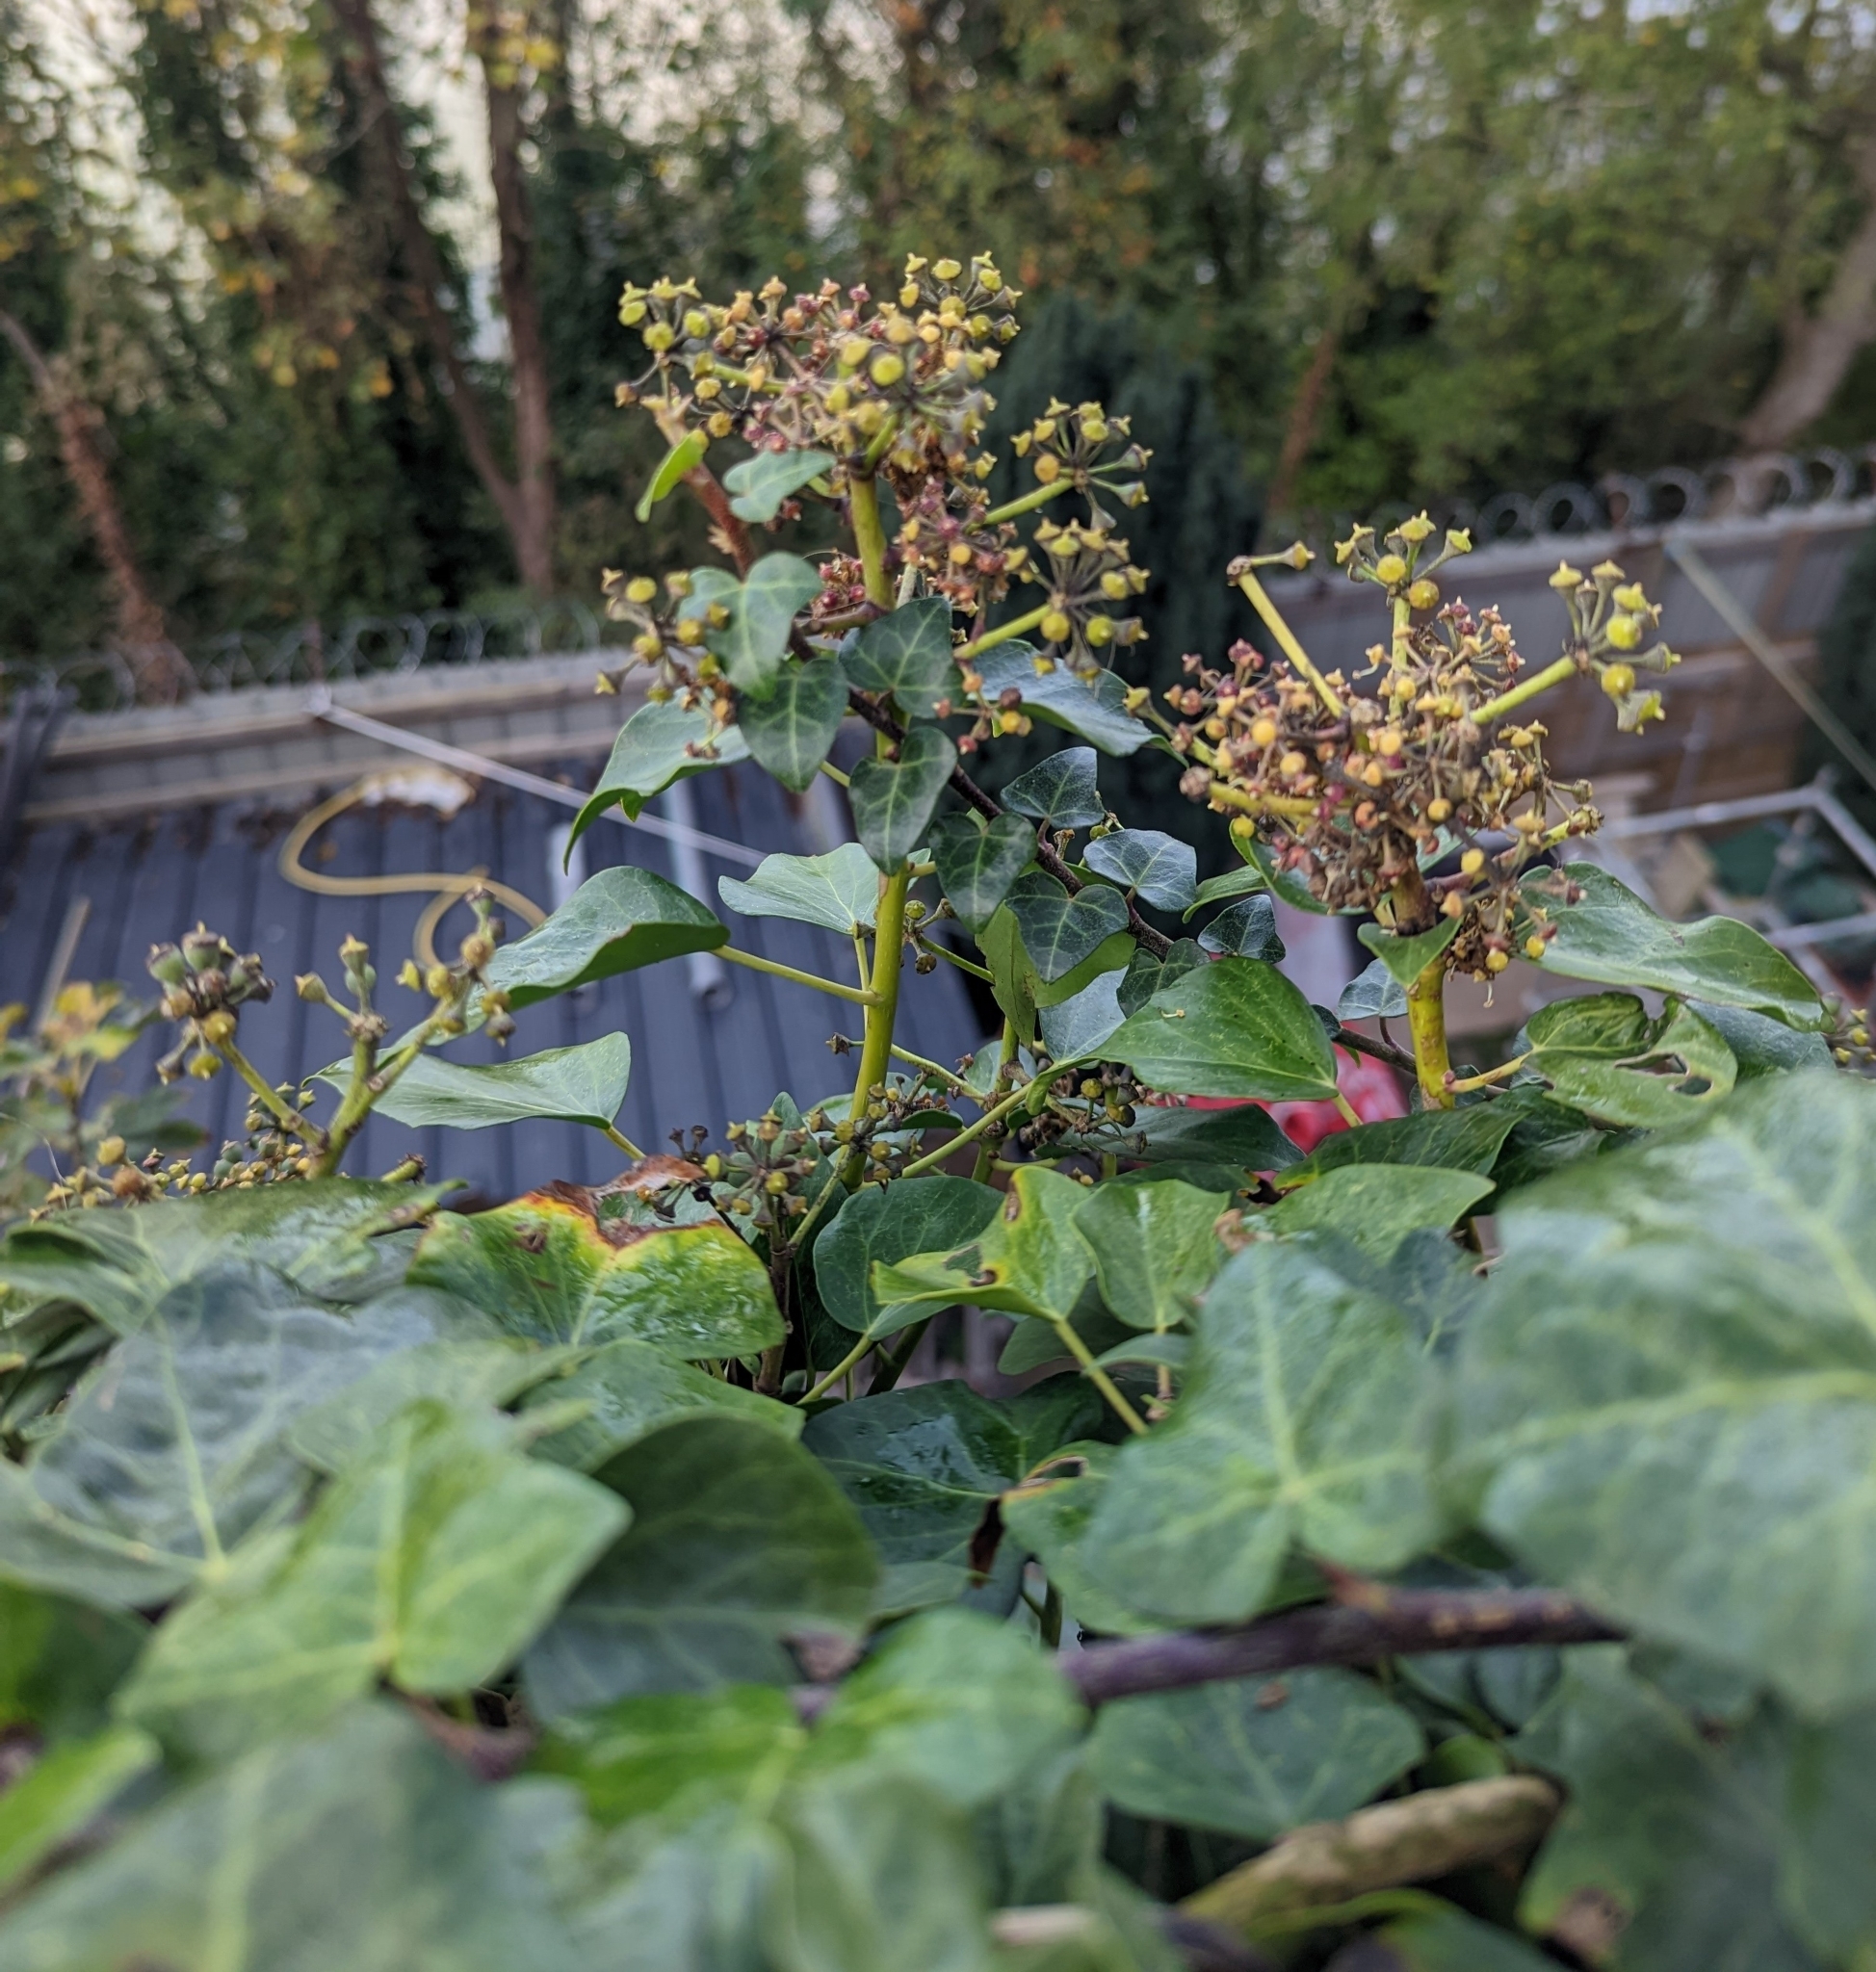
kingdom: Plantae
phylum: Tracheophyta
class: Magnoliopsida
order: Apiales
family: Araliaceae
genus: Hedera
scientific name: Hedera helix
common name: Ivy
